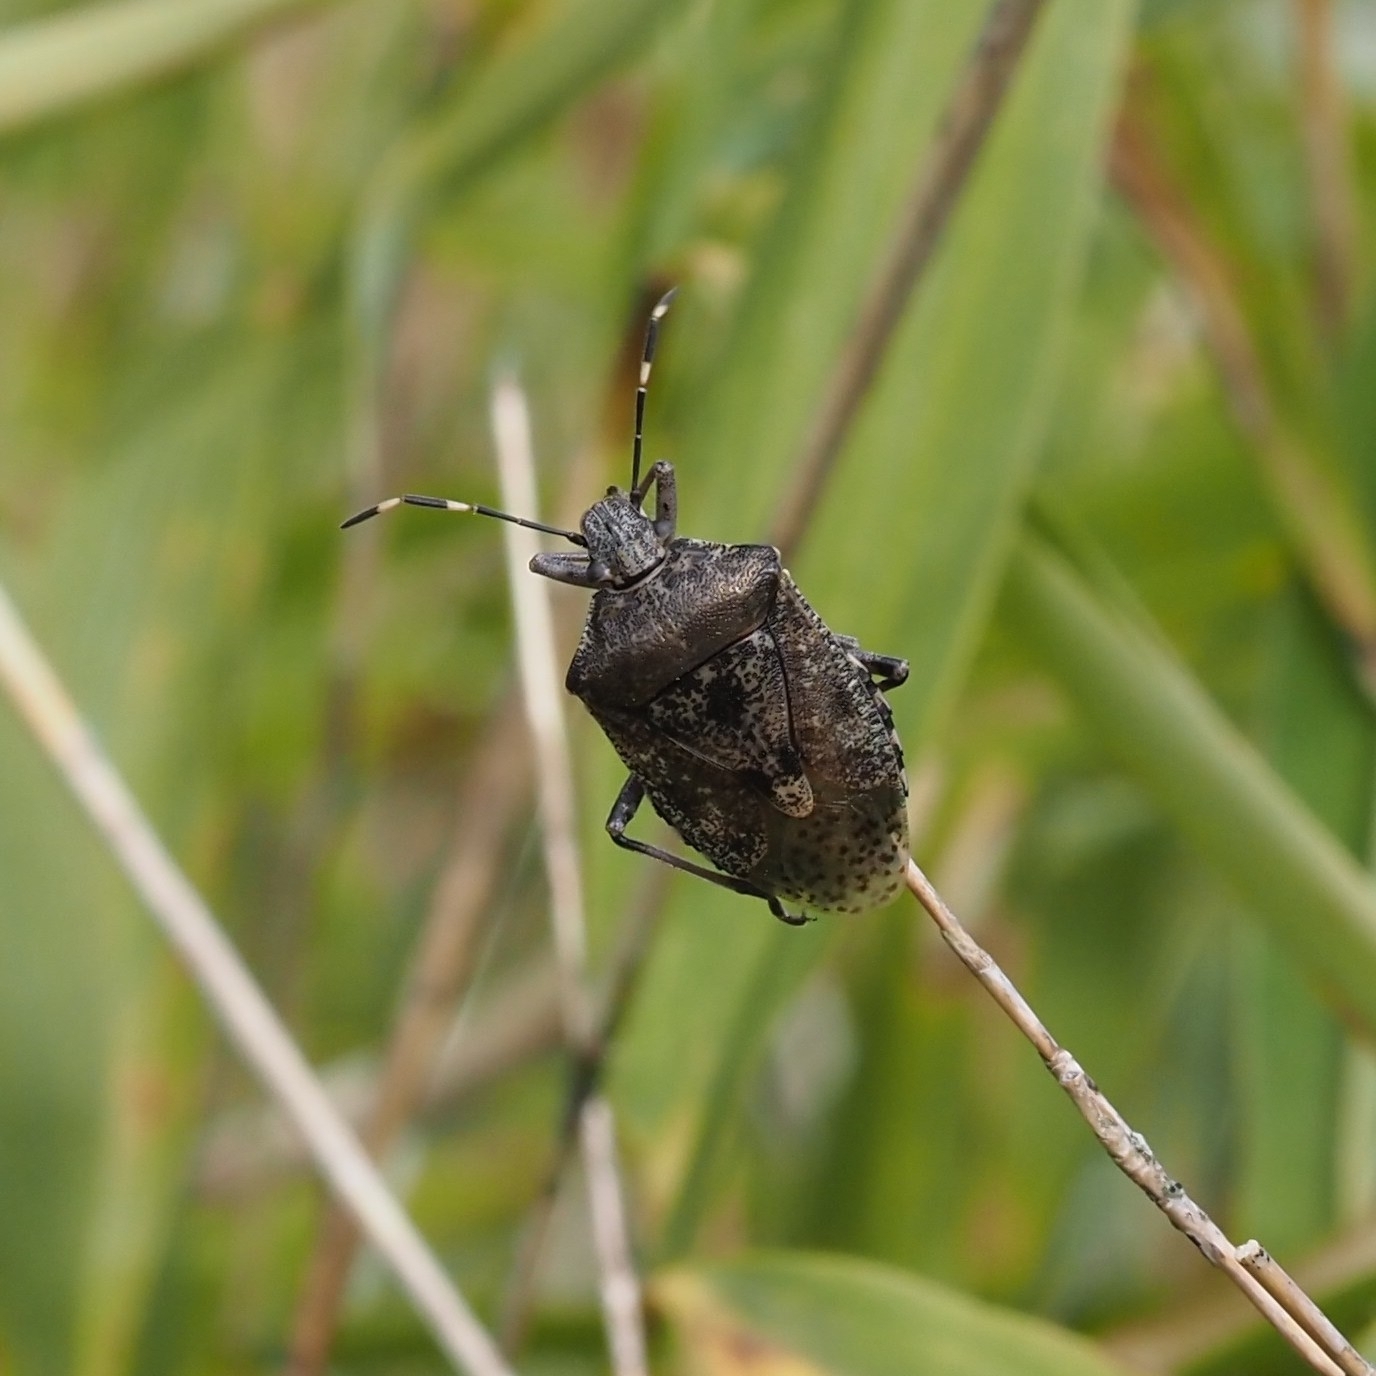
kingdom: Animalia
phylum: Arthropoda
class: Insecta
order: Hemiptera
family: Pentatomidae
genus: Rhaphigaster
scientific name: Rhaphigaster nebulosa
